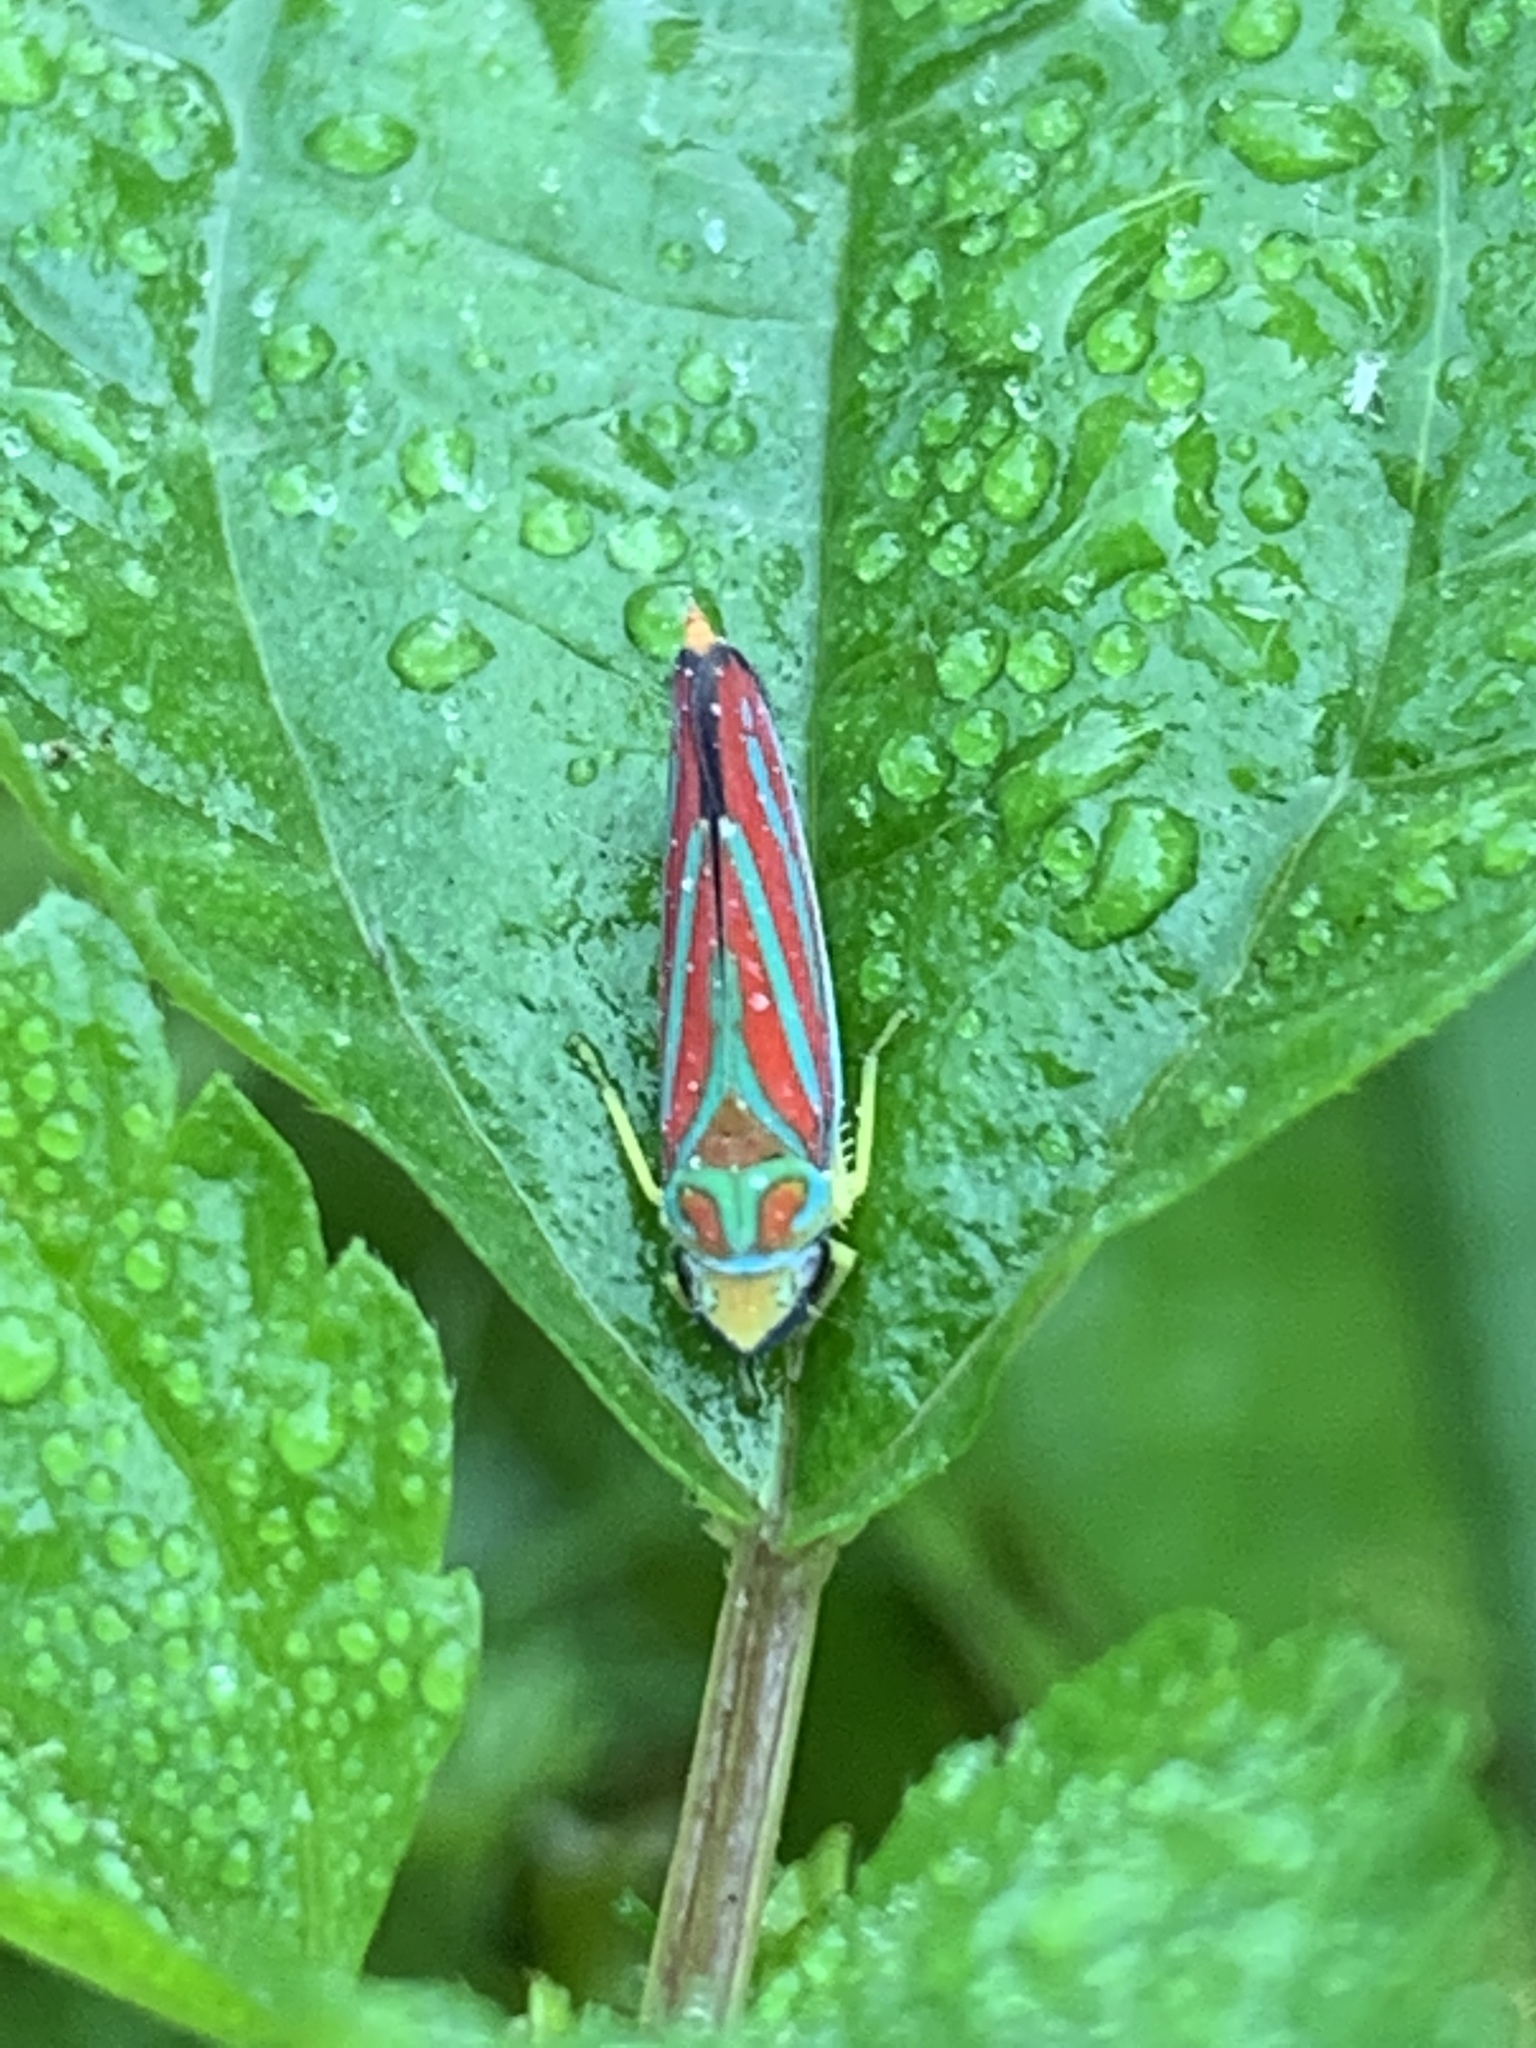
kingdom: Animalia
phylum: Arthropoda
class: Insecta
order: Hemiptera
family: Cicadellidae
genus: Graphocephala
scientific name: Graphocephala coccinea
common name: Candy-striped leafhopper
